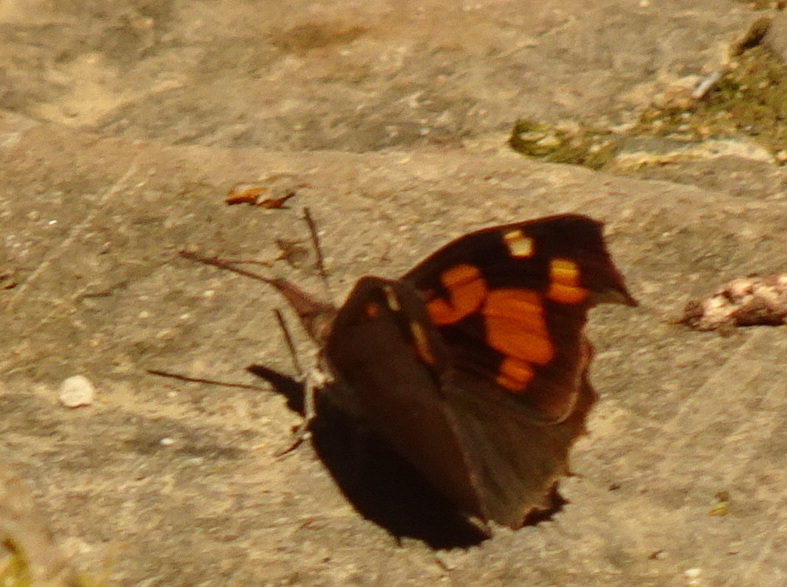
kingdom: Animalia
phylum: Arthropoda
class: Insecta
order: Lepidoptera
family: Nymphalidae
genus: Libythea
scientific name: Libythea celtis
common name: Nettle-tree butterfly
